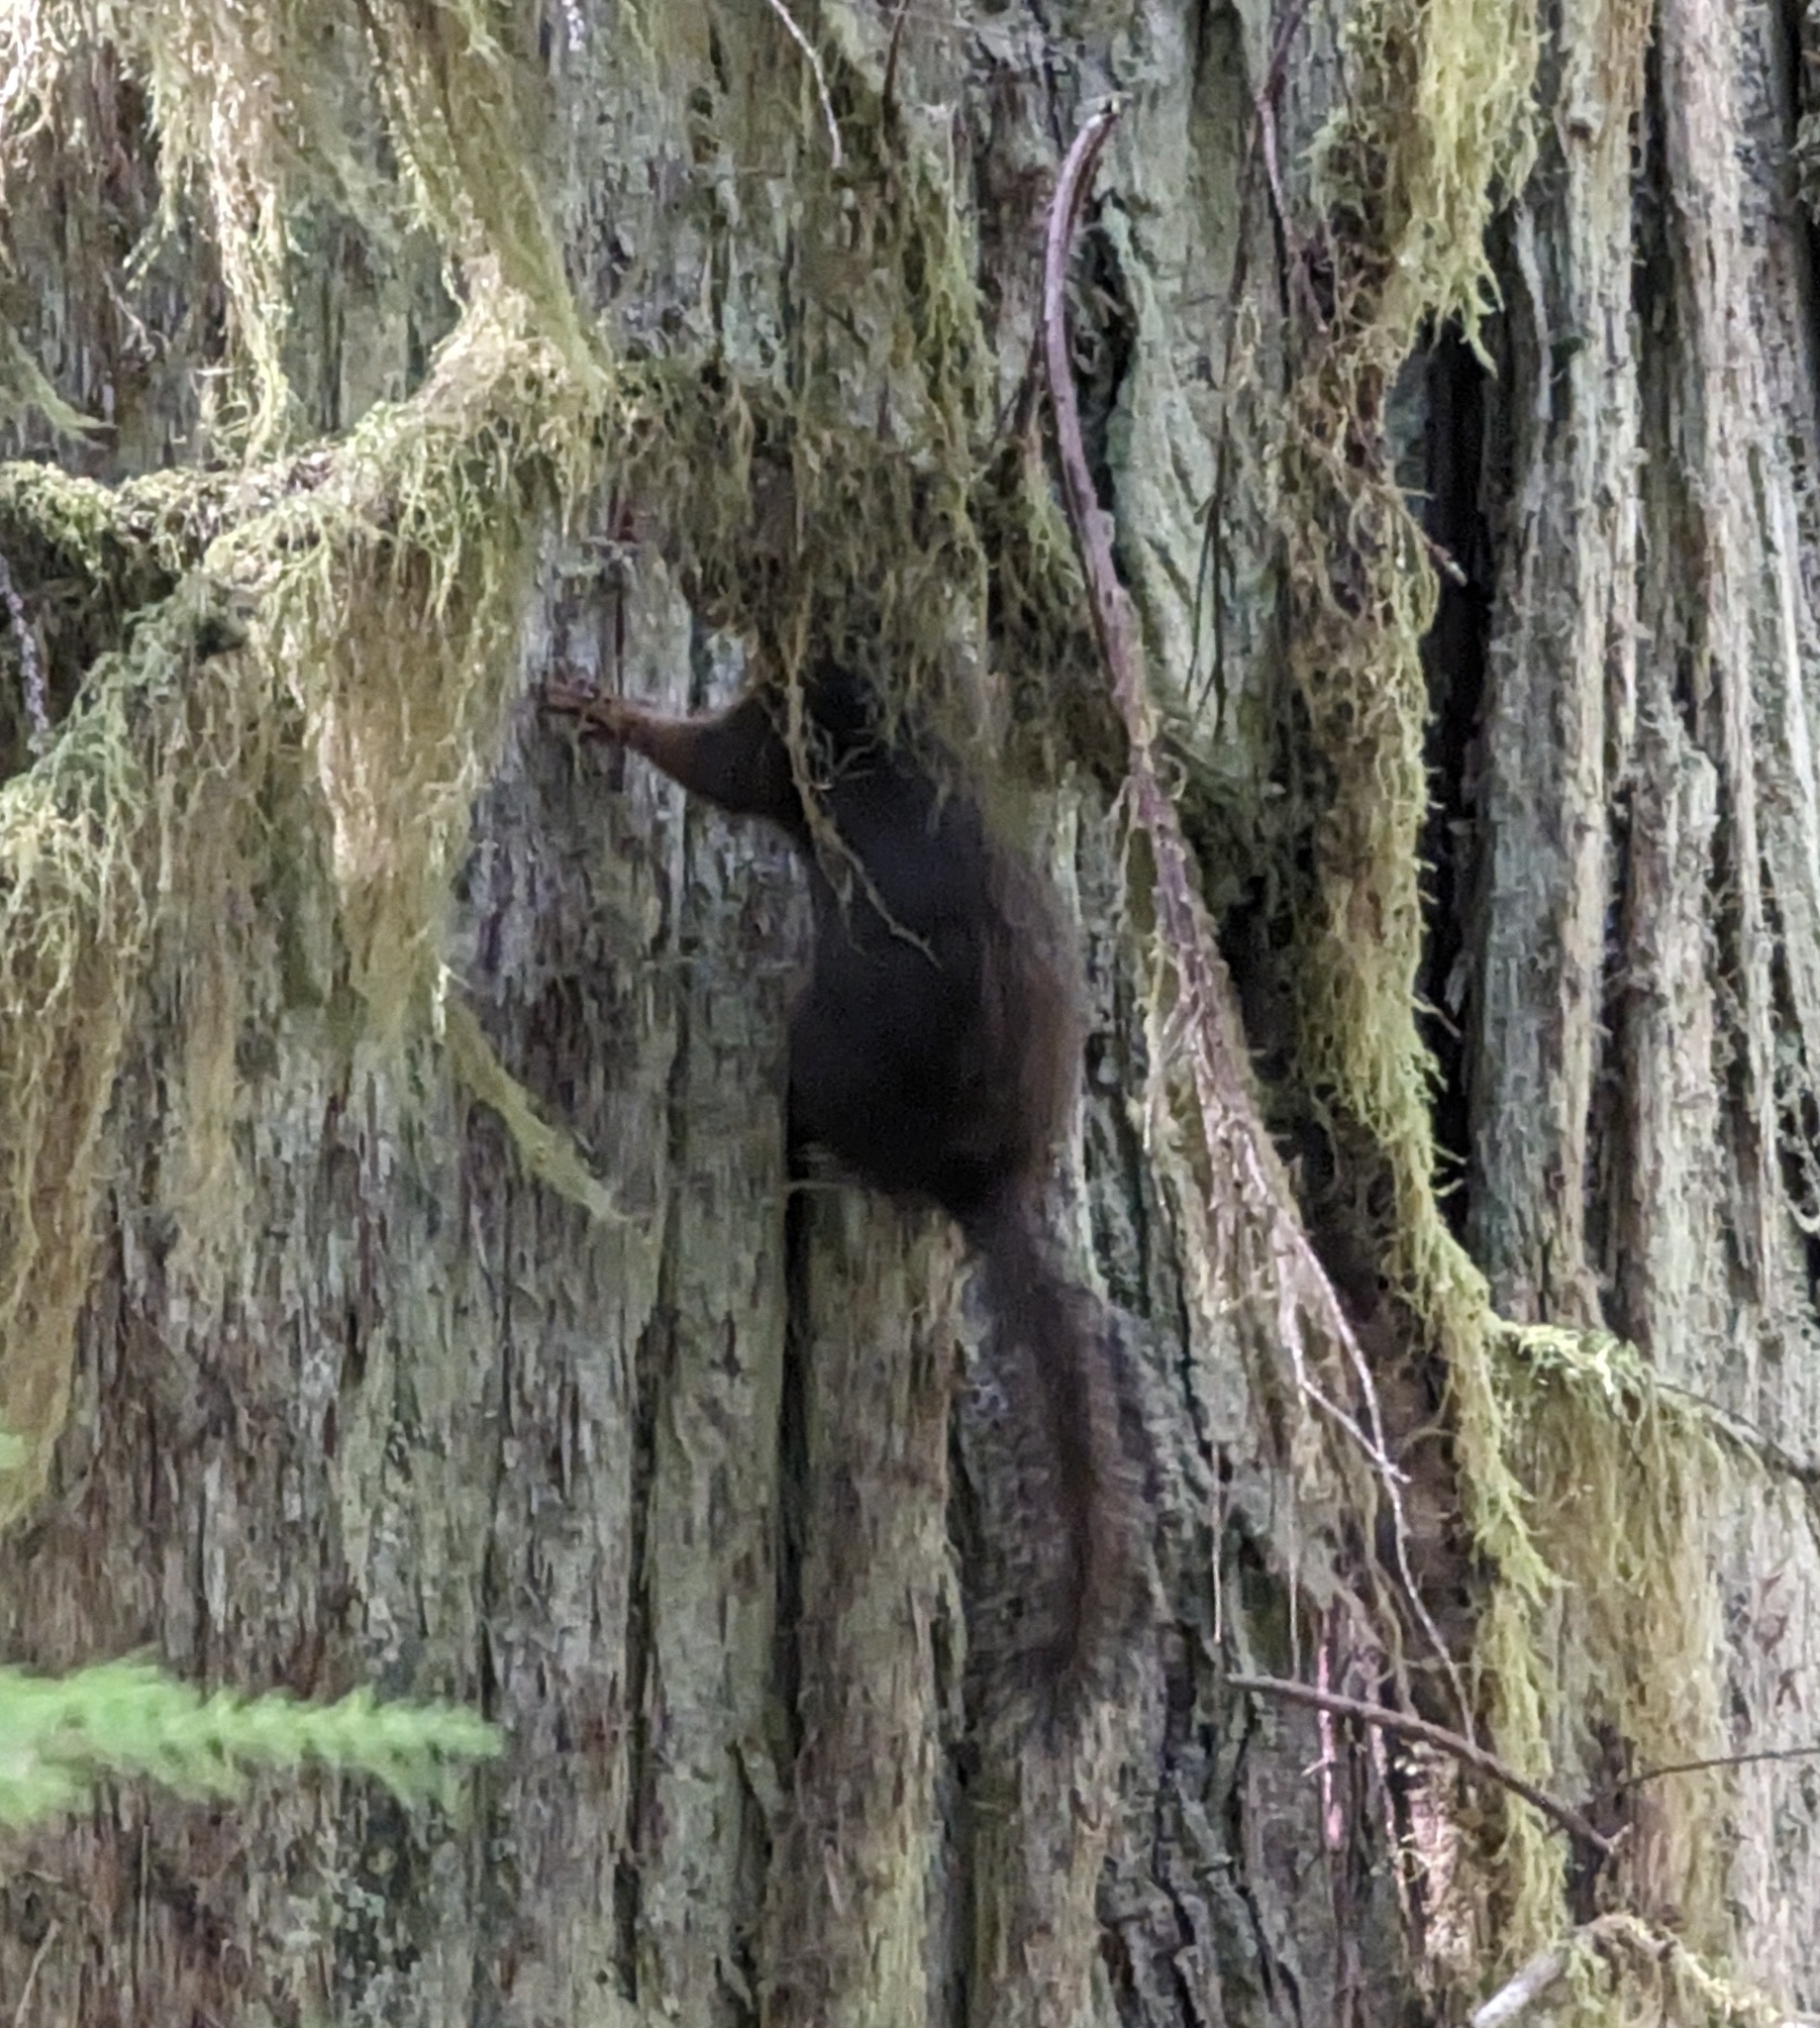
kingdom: Animalia
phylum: Chordata
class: Mammalia
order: Rodentia
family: Sciuridae
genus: Tamiasciurus
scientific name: Tamiasciurus douglasii
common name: Douglas's squirrel
